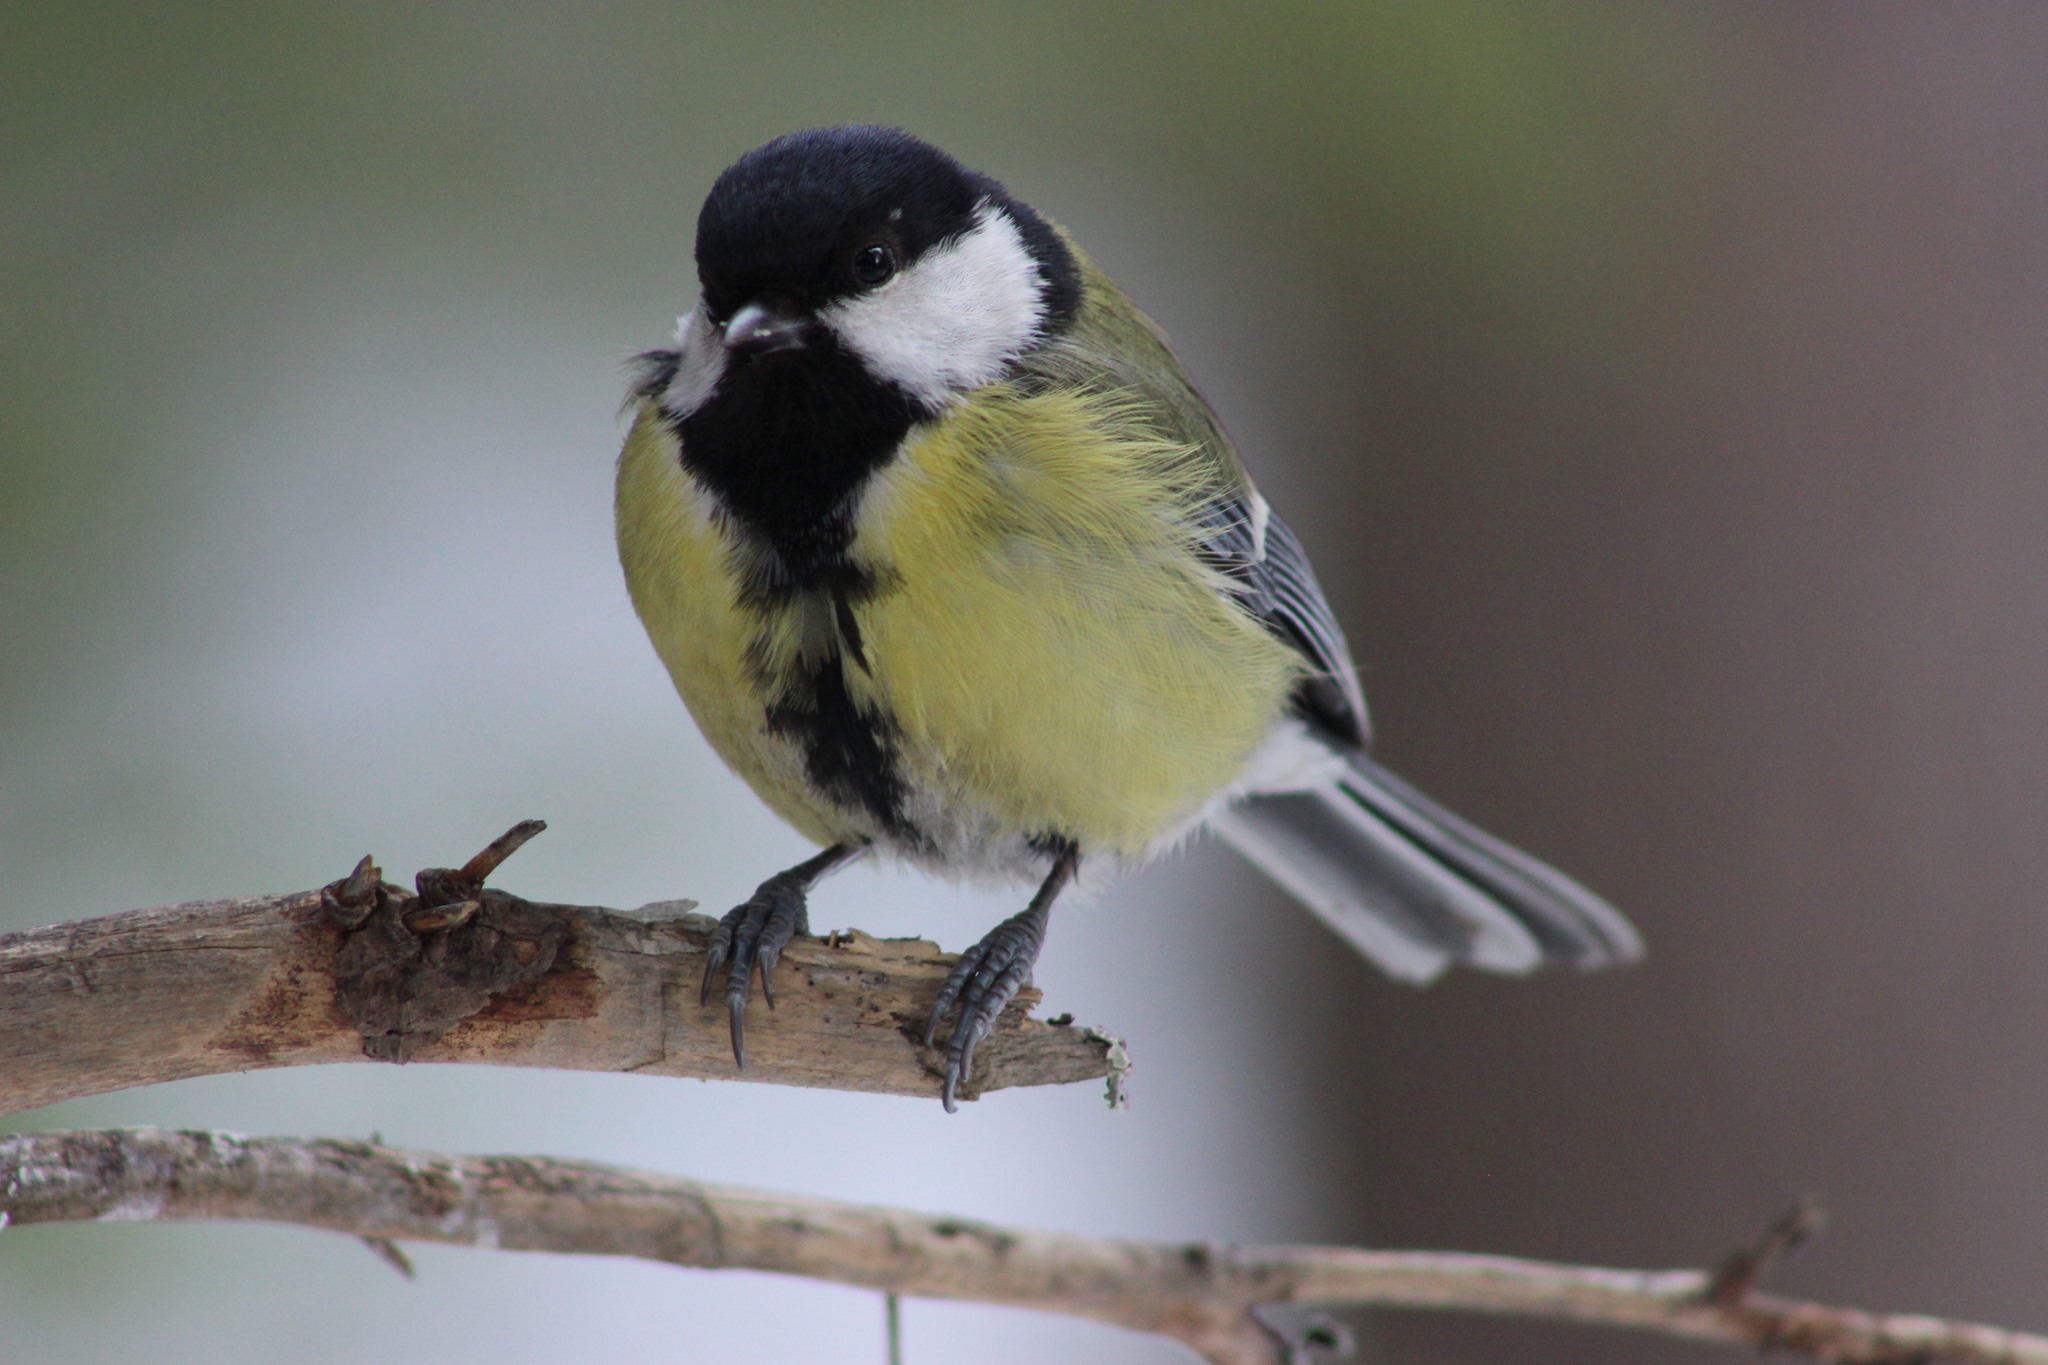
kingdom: Animalia
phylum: Chordata
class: Aves
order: Passeriformes
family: Paridae
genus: Parus
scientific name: Parus major
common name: Great tit
